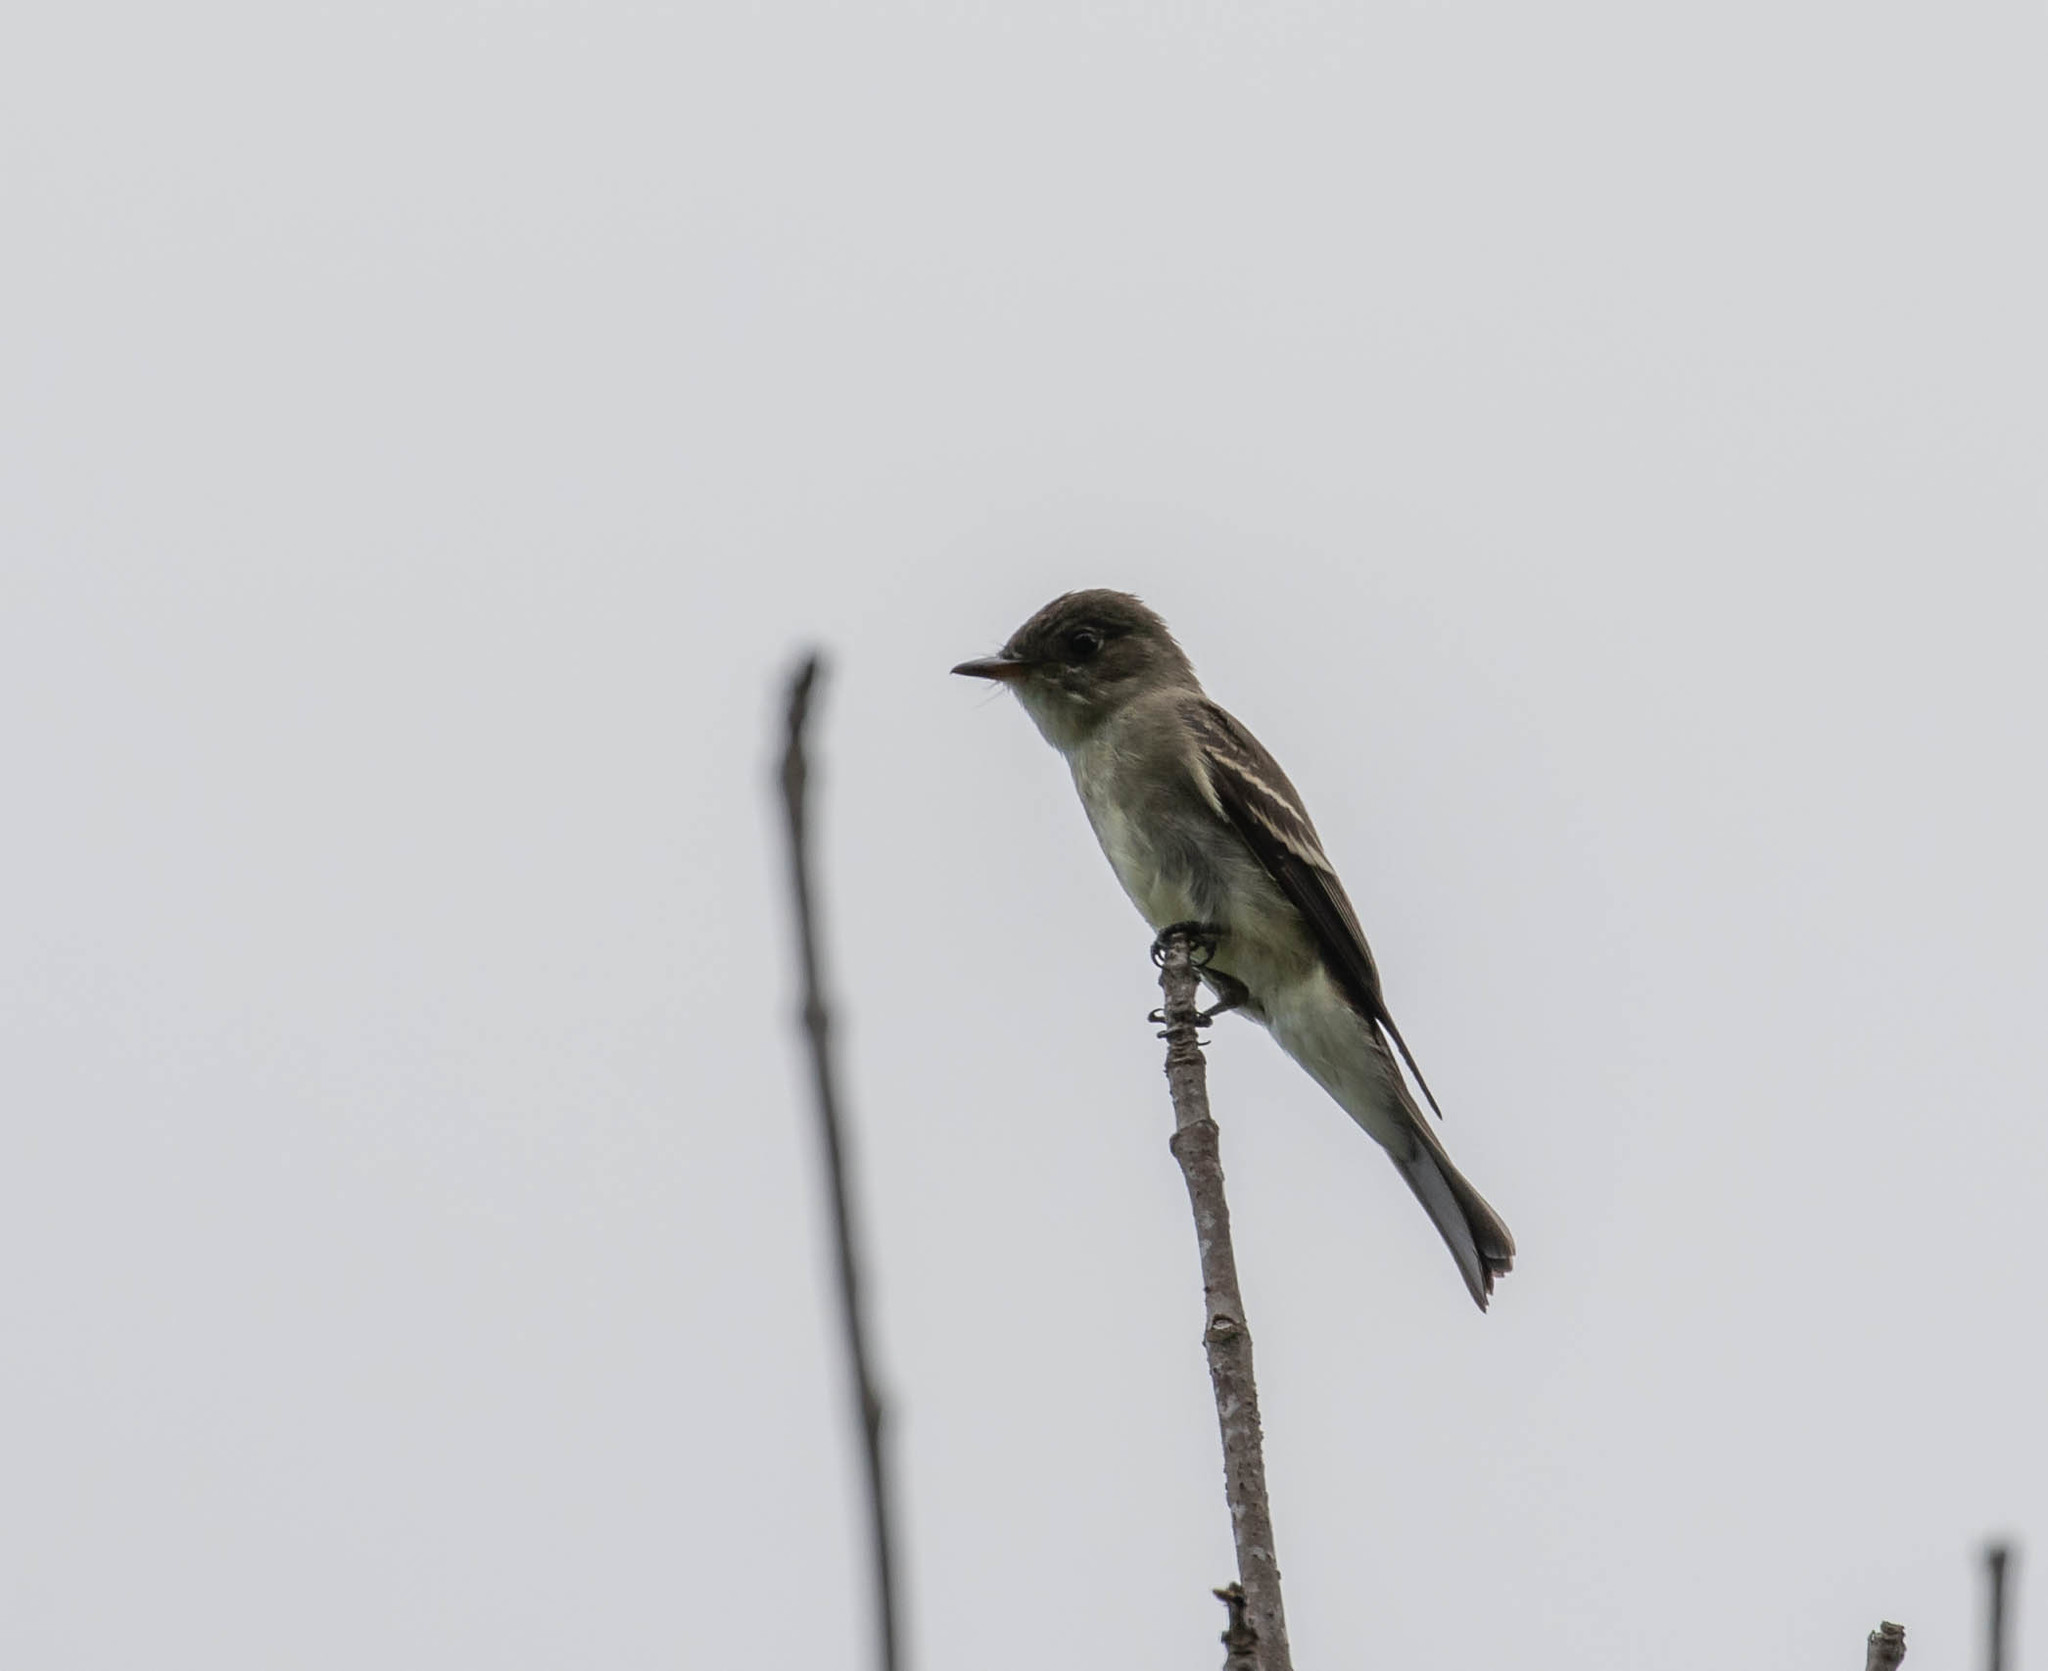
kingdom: Animalia
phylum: Chordata
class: Aves
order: Passeriformes
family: Tyrannidae
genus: Contopus
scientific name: Contopus virens
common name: Eastern wood-pewee
